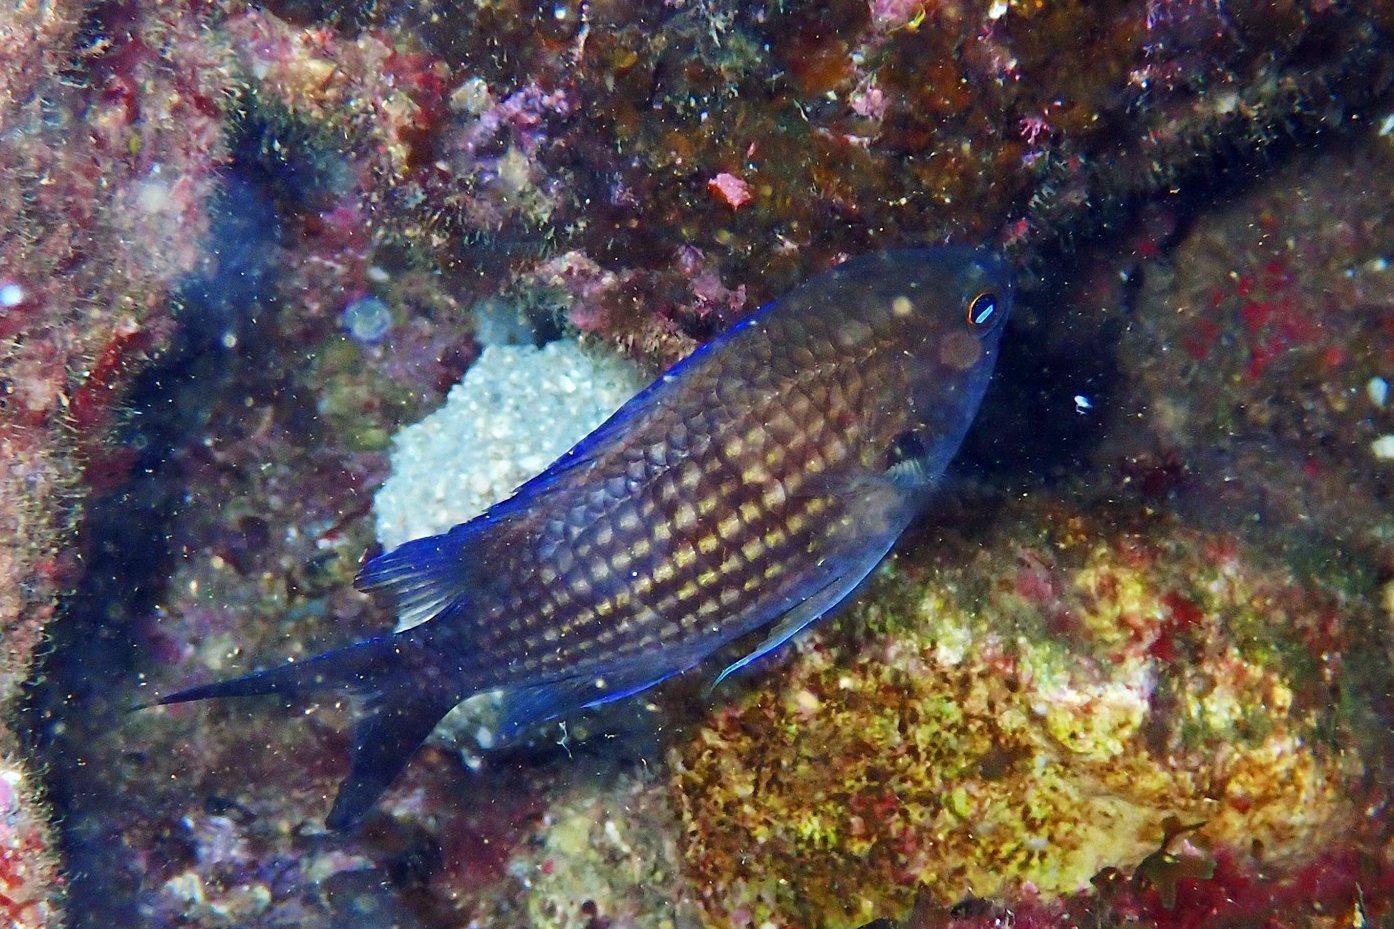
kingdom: Animalia
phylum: Chordata
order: Perciformes
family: Pomacentridae
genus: Chromis
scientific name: Chromis chromis
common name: Damselfish
